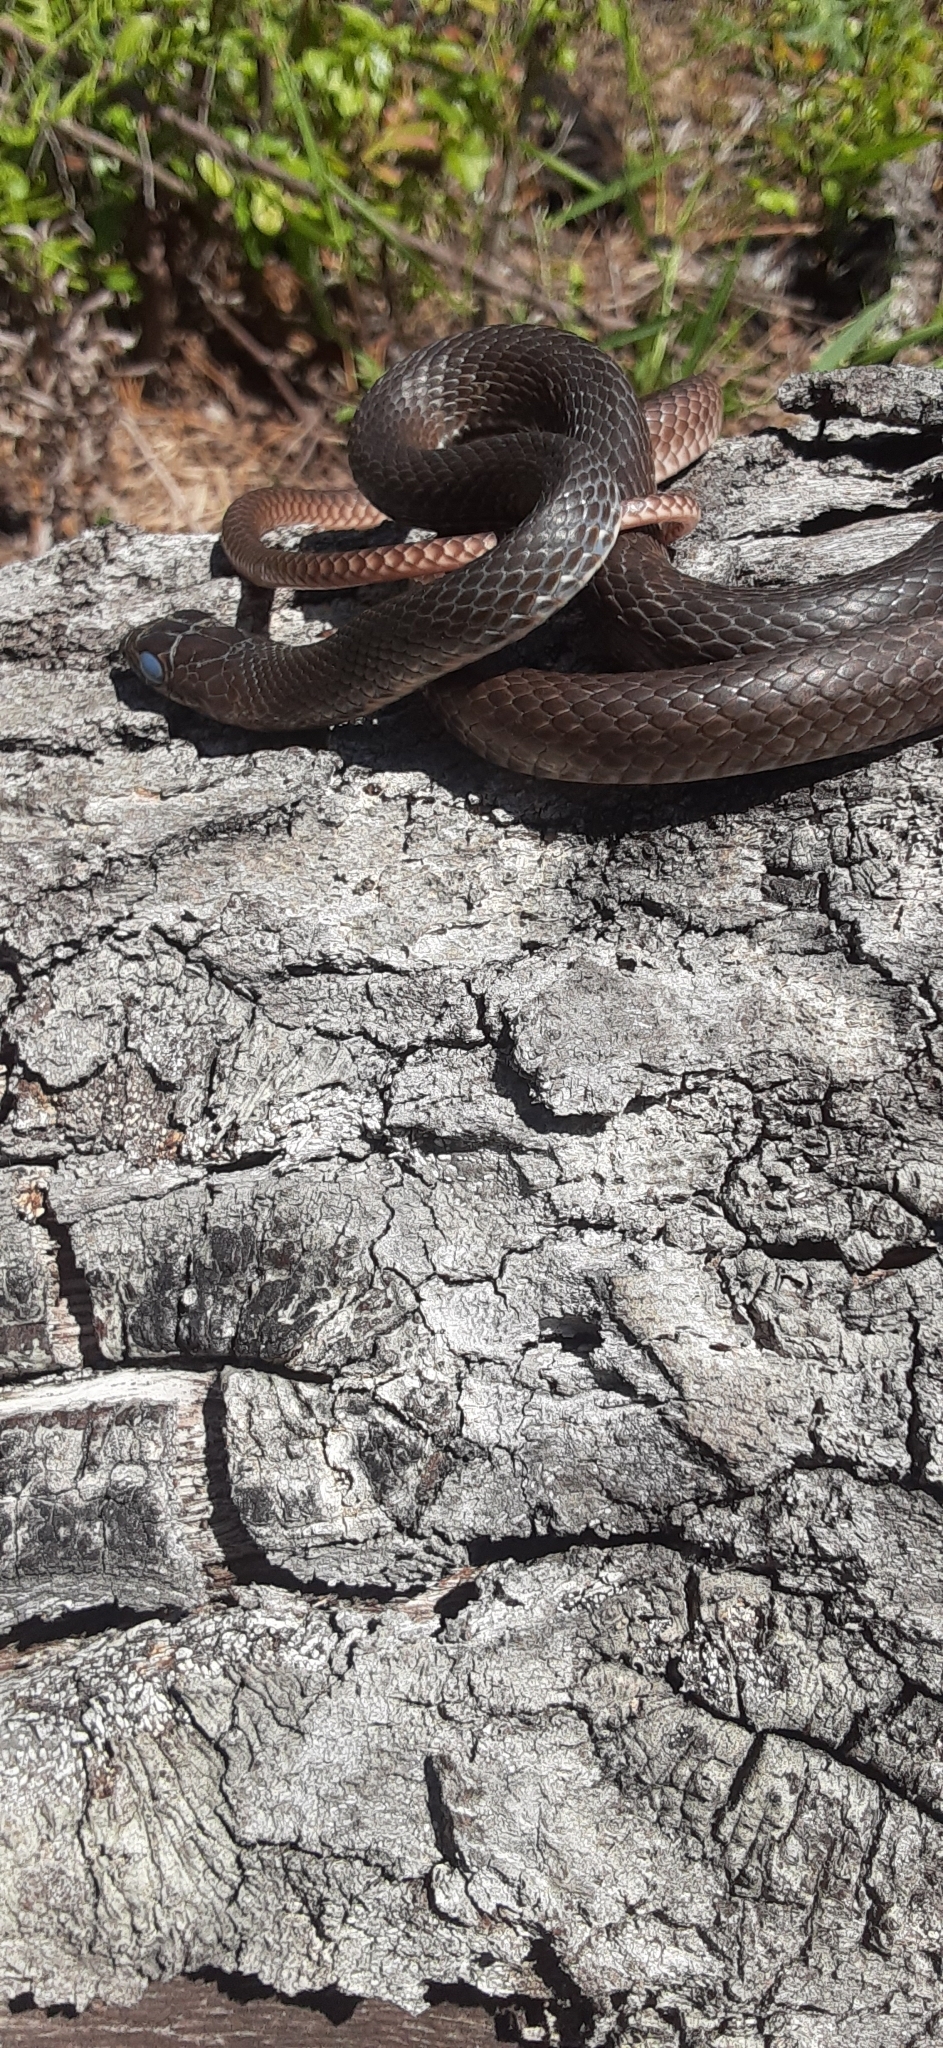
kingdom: Animalia
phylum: Chordata
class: Squamata
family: Colubridae
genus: Masticophis
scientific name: Masticophis flagellum
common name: Coachwhip
